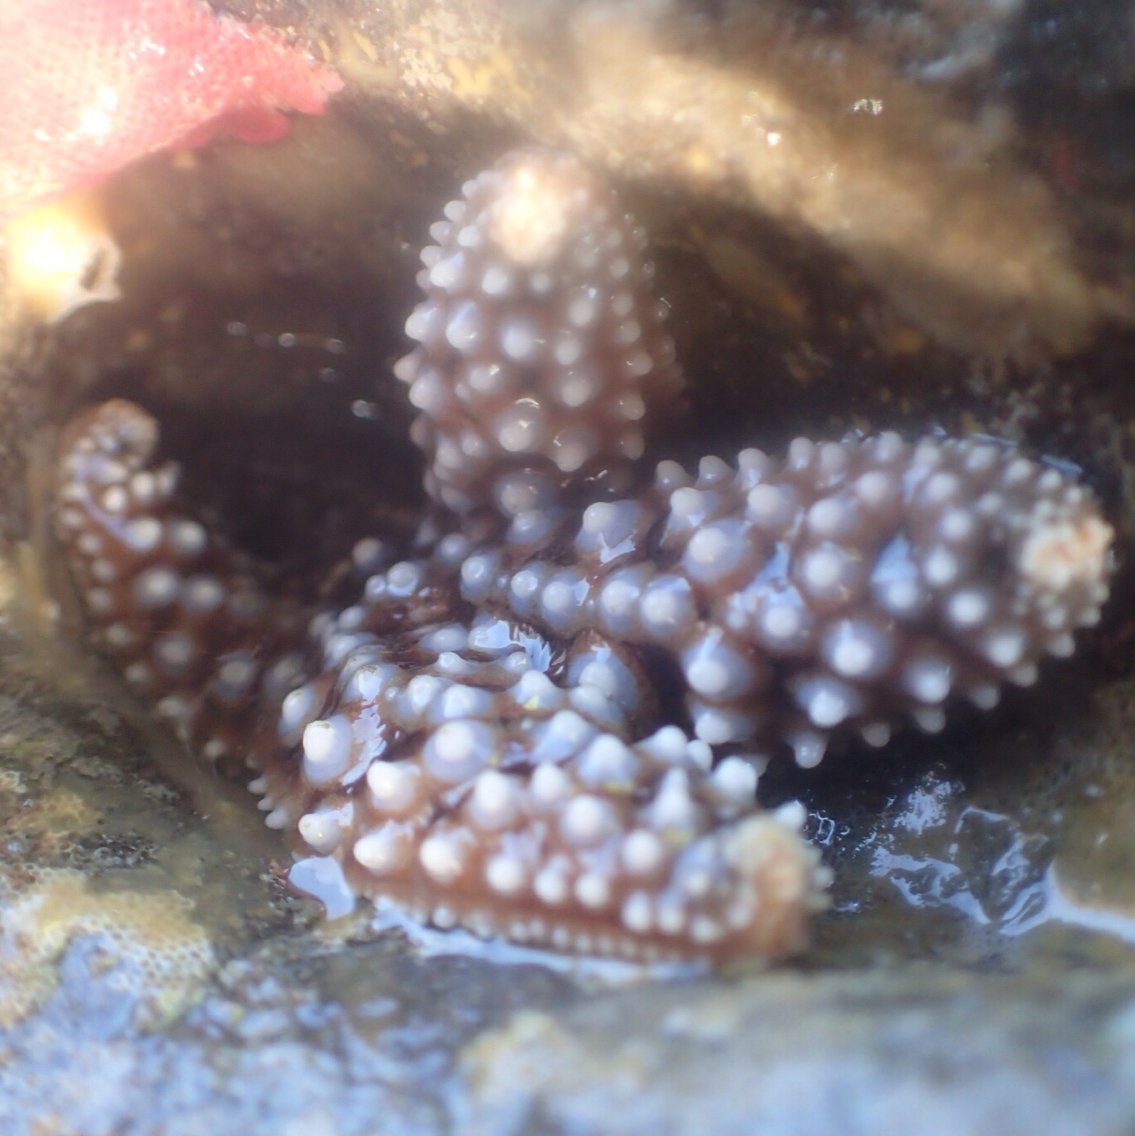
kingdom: Animalia
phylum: Echinodermata
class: Asteroidea
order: Forcipulatida
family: Asteriidae
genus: Pisaster
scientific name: Pisaster giganteus
